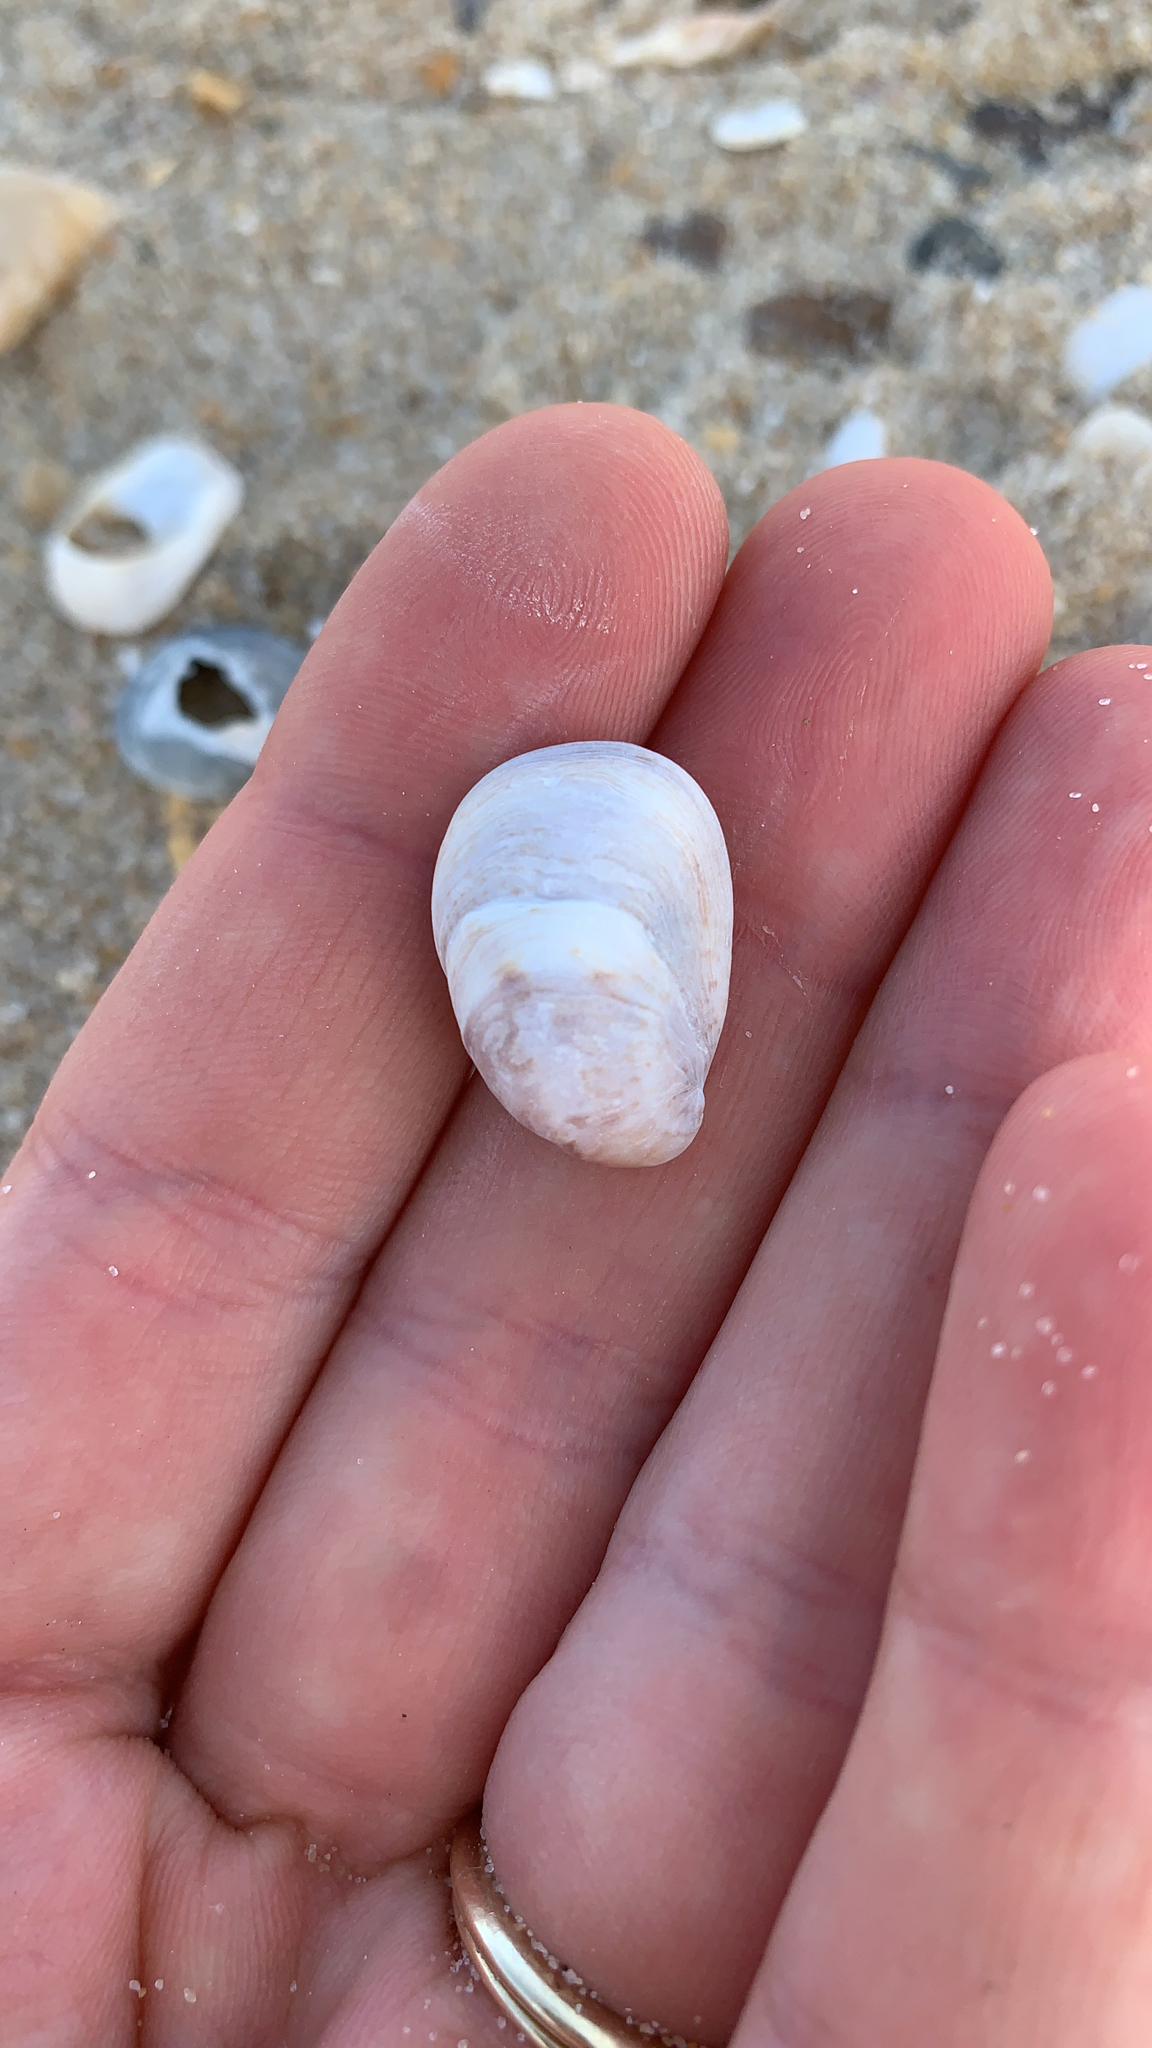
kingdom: Animalia
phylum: Mollusca
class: Gastropoda
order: Littorinimorpha
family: Calyptraeidae
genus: Crepidula
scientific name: Crepidula fornicata
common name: Slipper limpet
